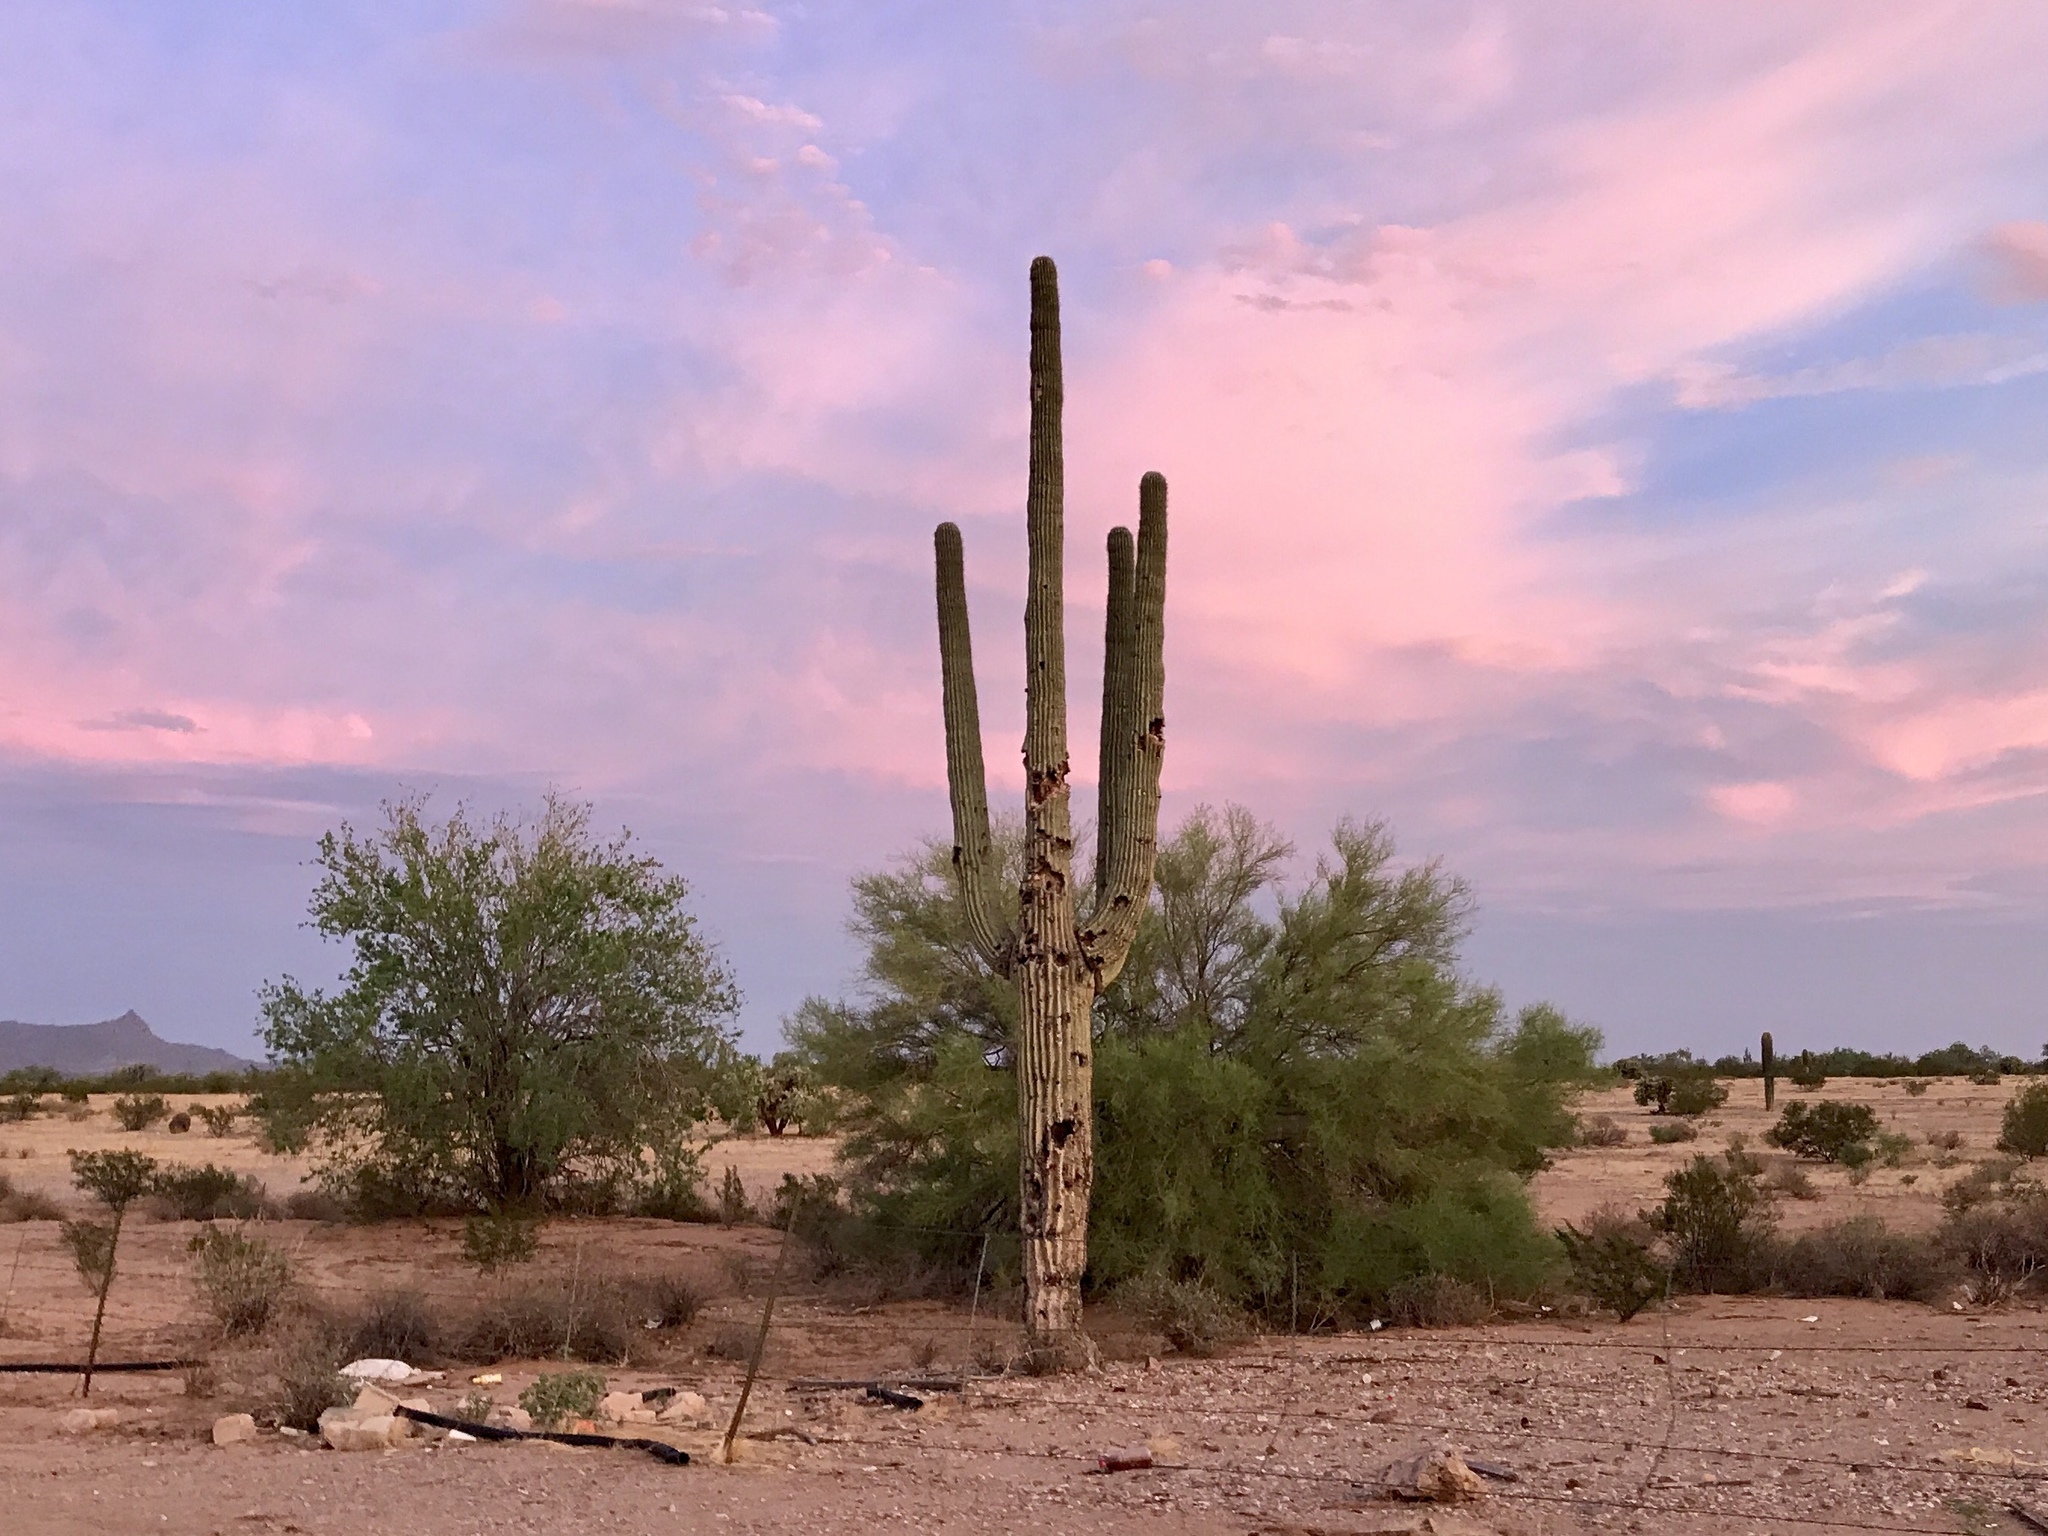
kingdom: Plantae
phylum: Tracheophyta
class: Magnoliopsida
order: Caryophyllales
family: Cactaceae
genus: Carnegiea
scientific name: Carnegiea gigantea
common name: Saguaro
